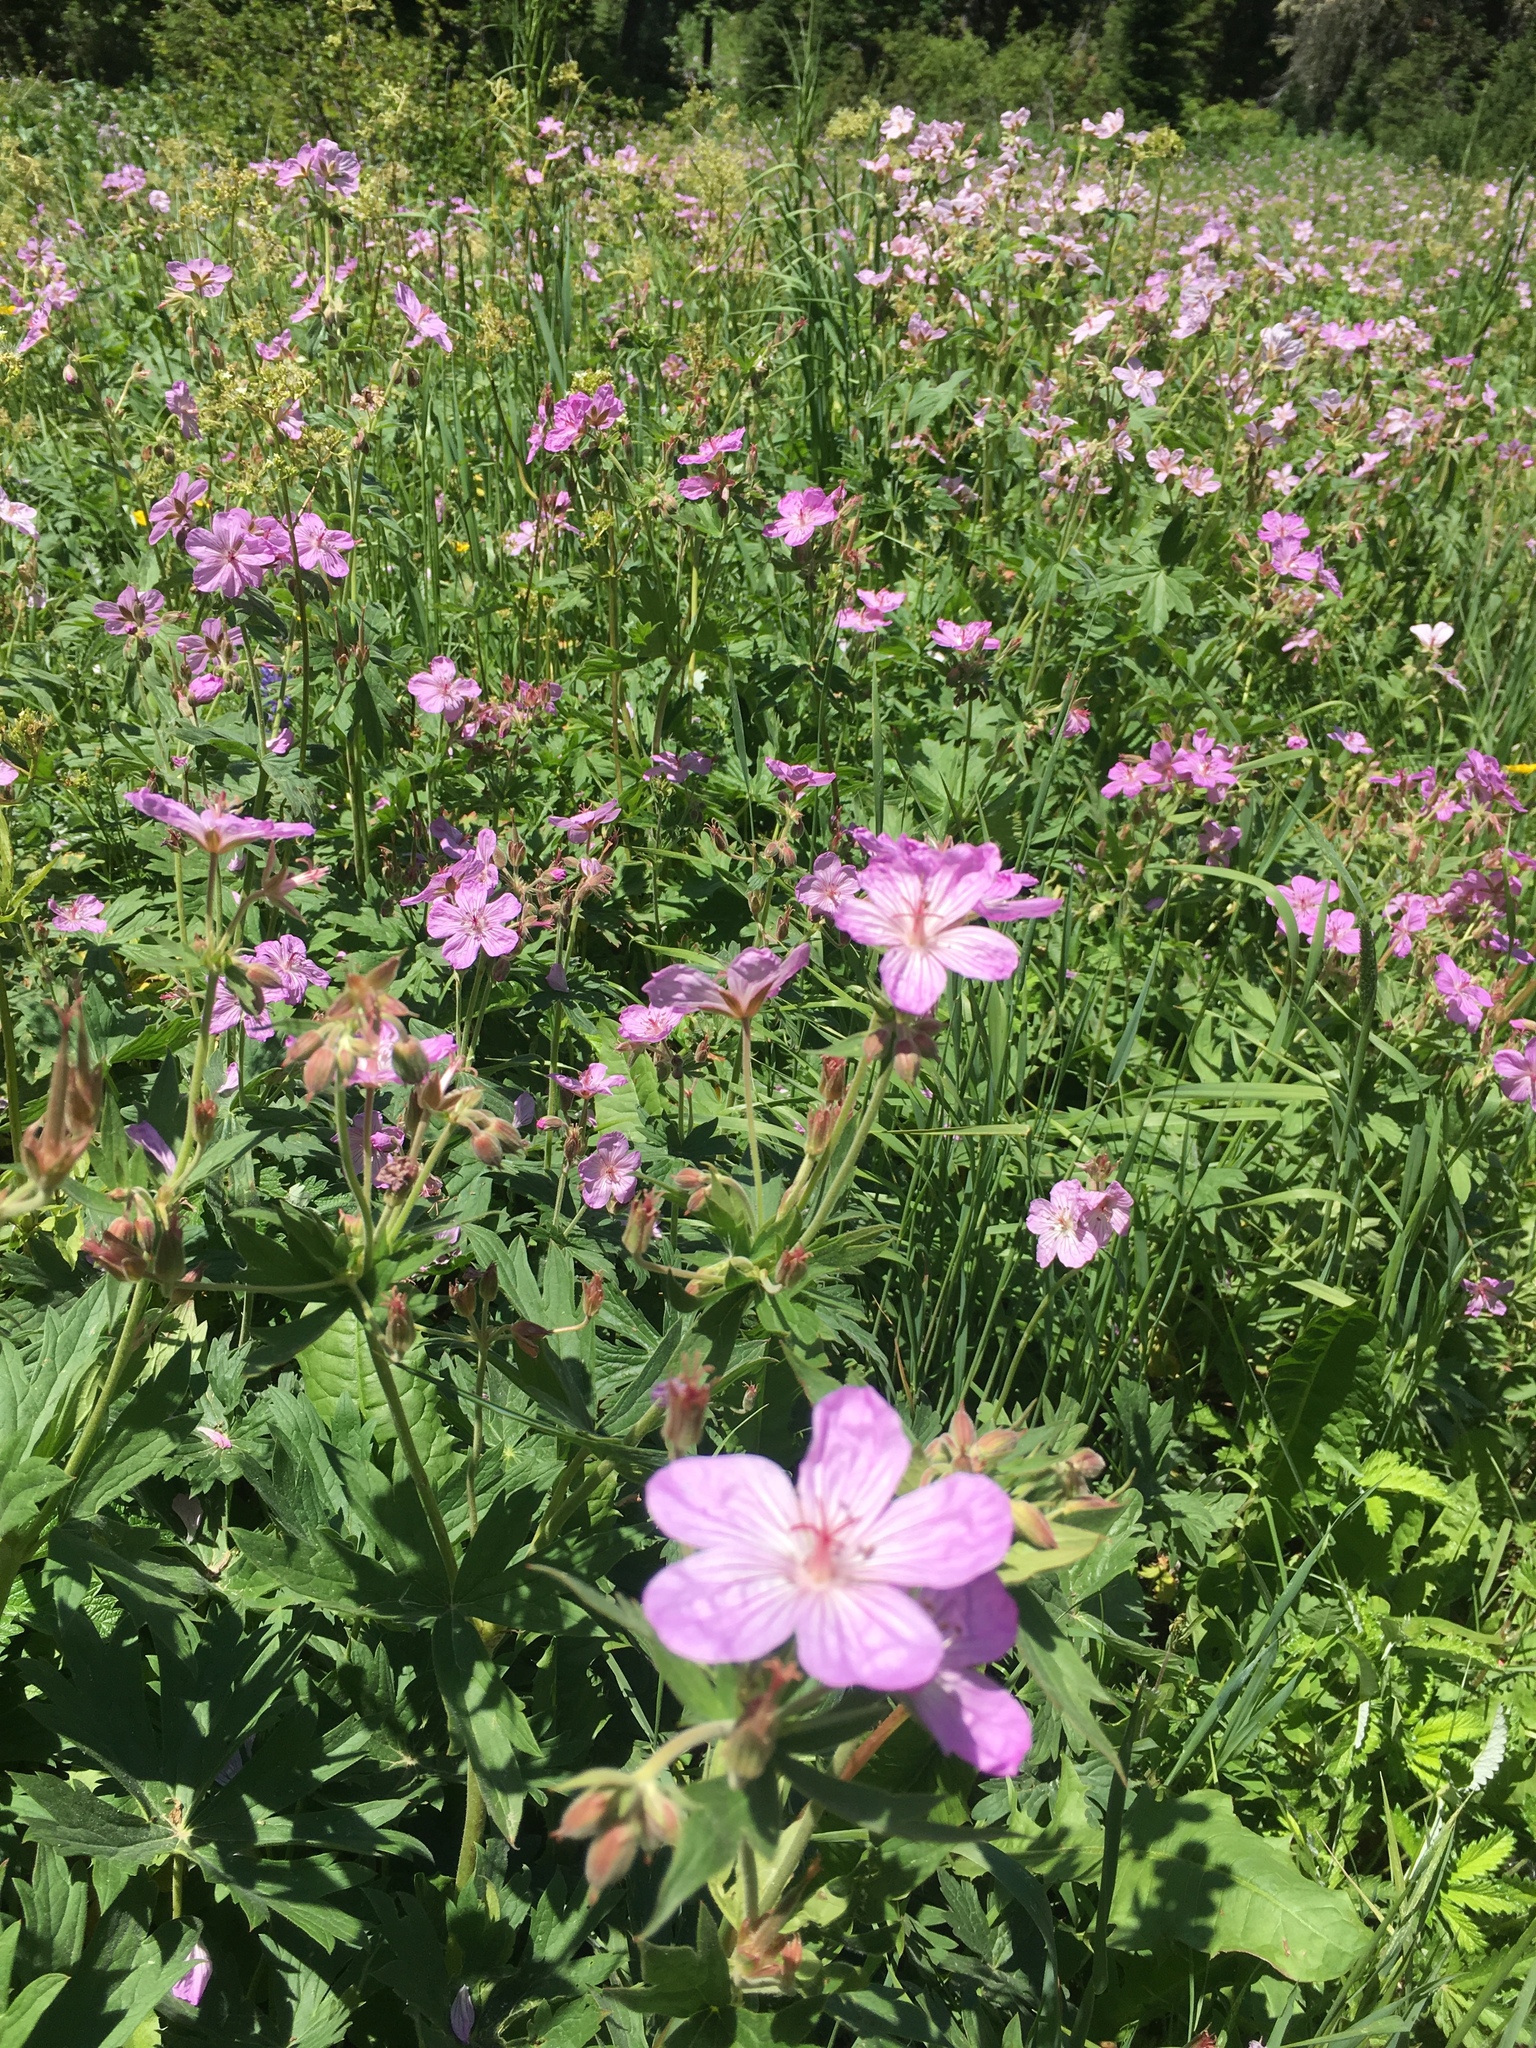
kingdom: Plantae
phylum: Tracheophyta
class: Magnoliopsida
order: Geraniales
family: Geraniaceae
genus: Geranium
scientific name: Geranium viscosissimum
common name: Purple geranium
